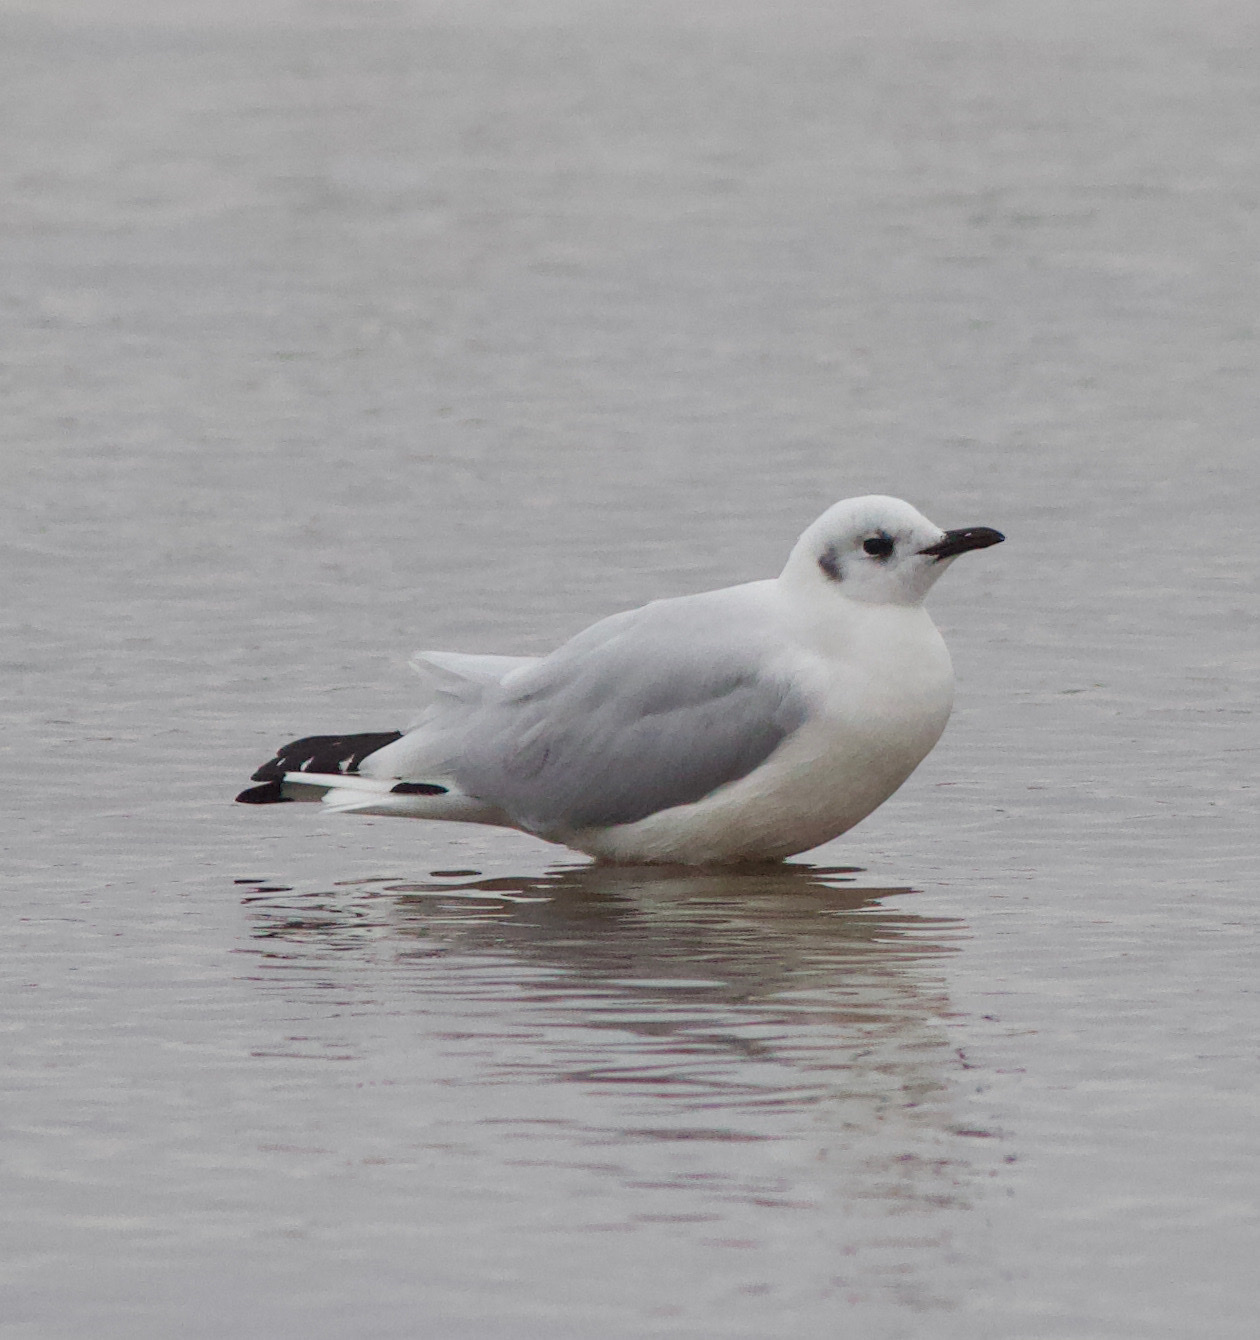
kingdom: Animalia
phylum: Chordata
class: Aves
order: Charadriiformes
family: Laridae
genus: Chroicocephalus
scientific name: Chroicocephalus serranus
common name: Andean gull
